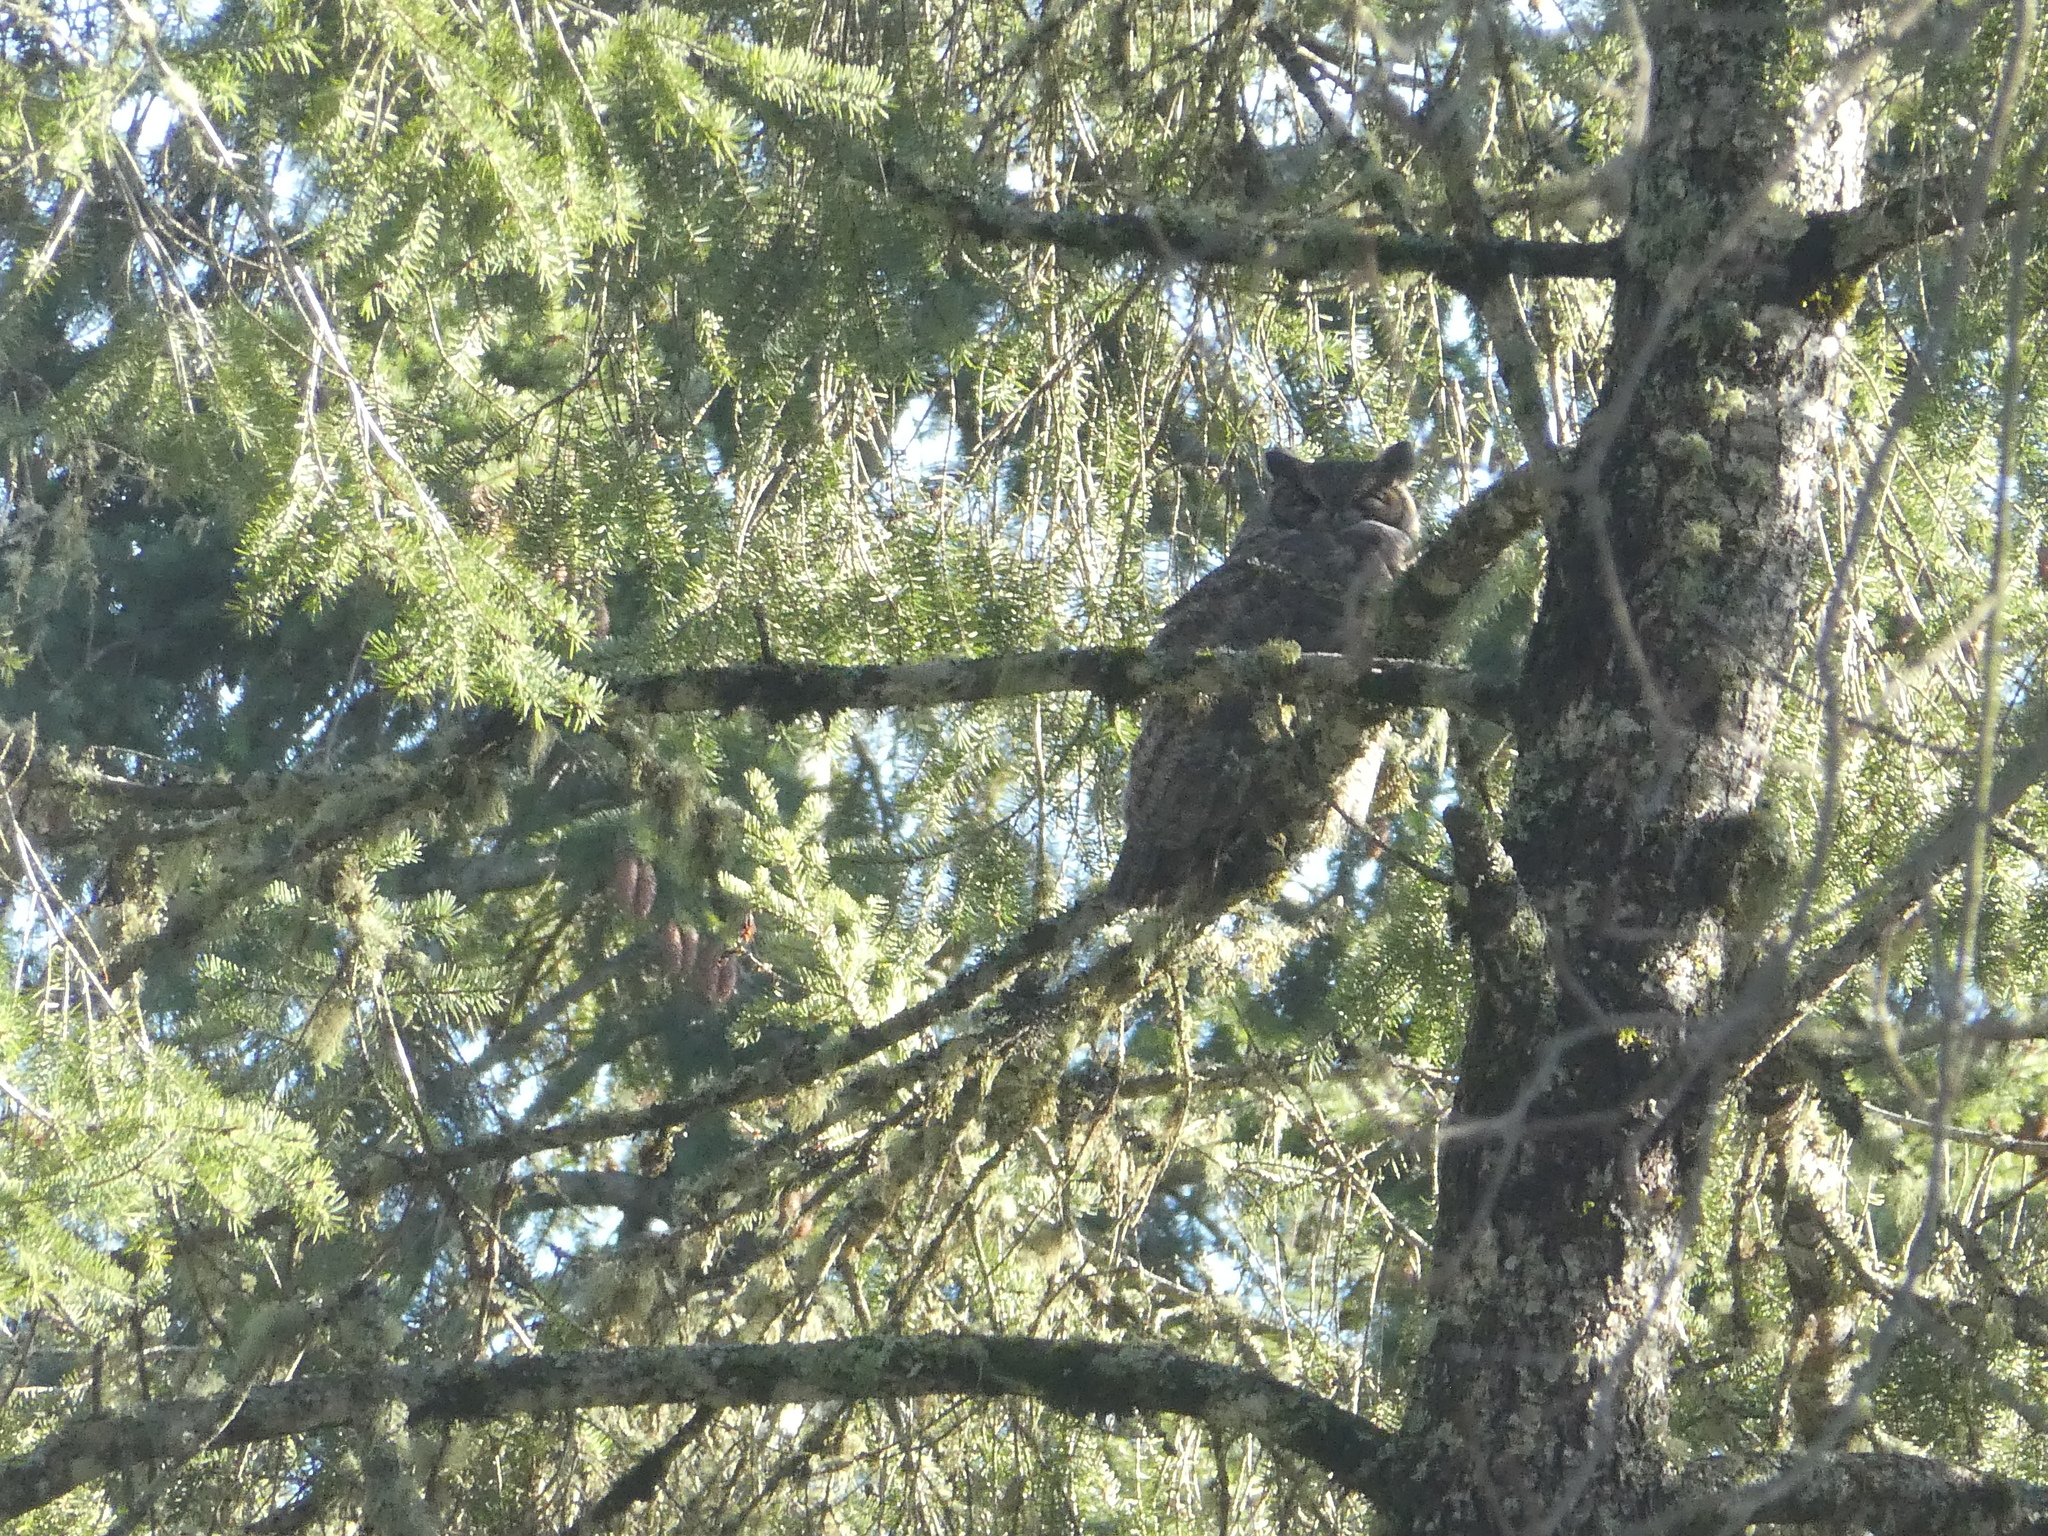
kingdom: Animalia
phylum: Chordata
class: Aves
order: Strigiformes
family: Strigidae
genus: Bubo
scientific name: Bubo virginianus
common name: Great horned owl
